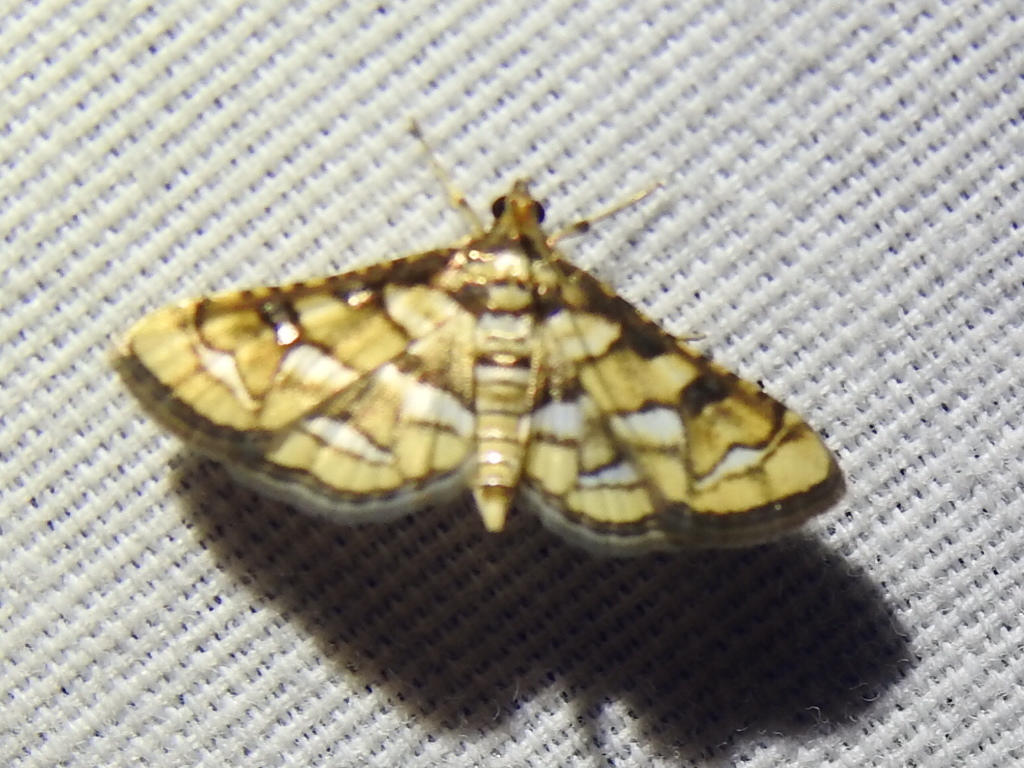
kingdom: Animalia
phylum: Arthropoda
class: Insecta
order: Lepidoptera
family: Crambidae
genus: Hileithia
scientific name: Hileithia magualis
